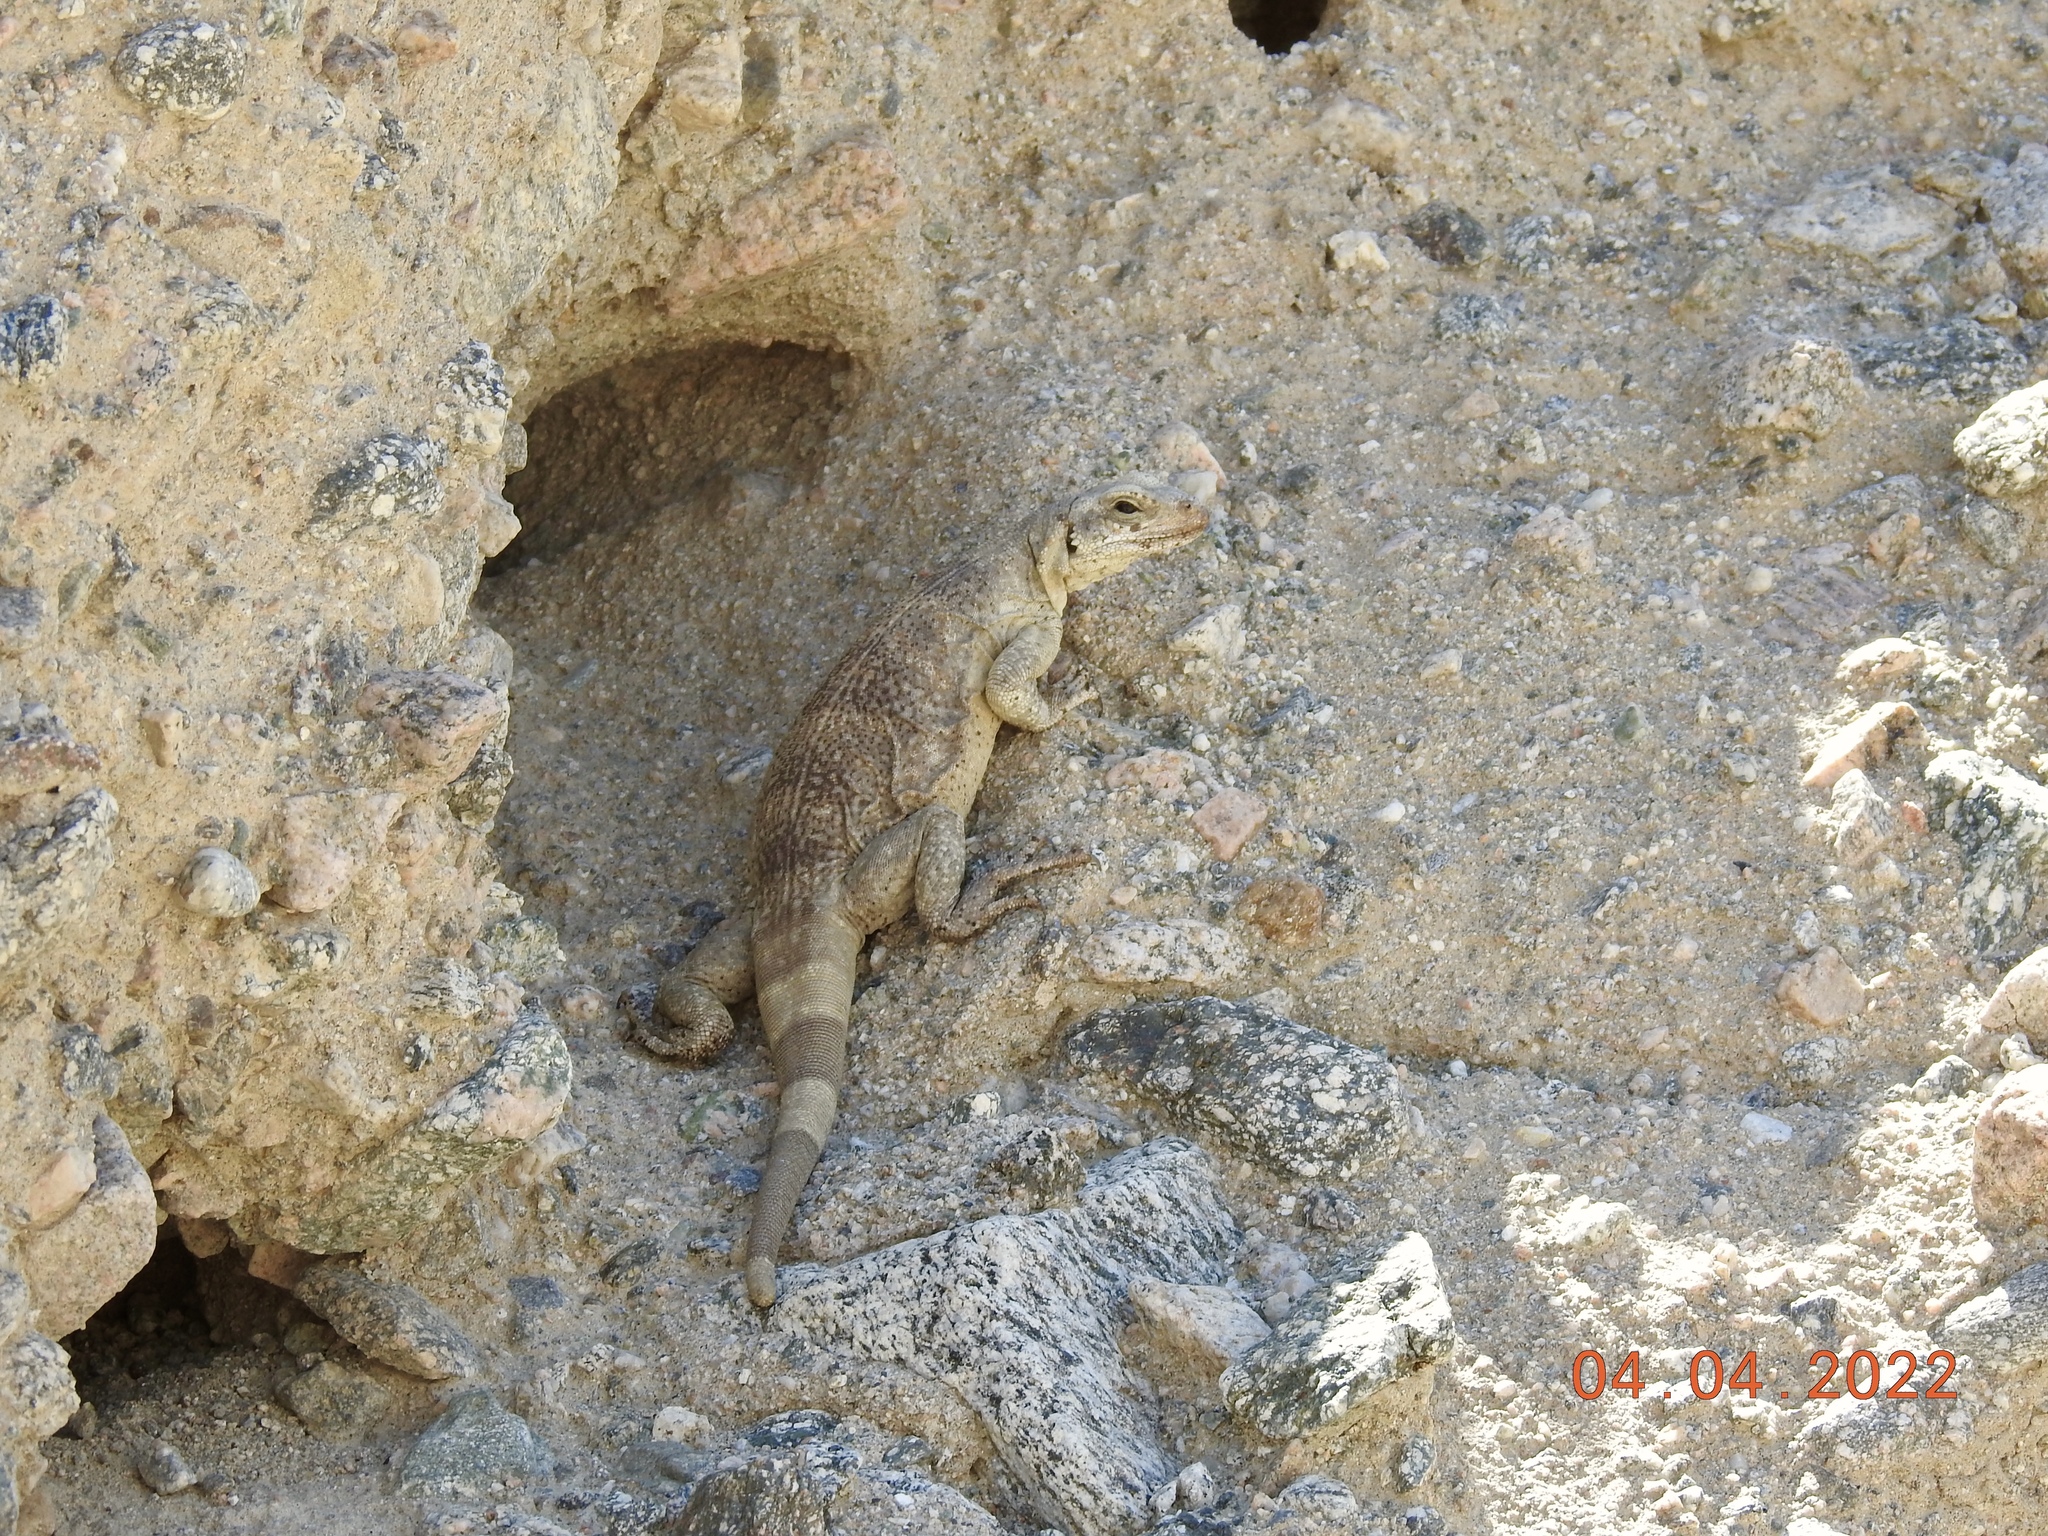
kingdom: Animalia
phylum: Chordata
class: Squamata
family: Iguanidae
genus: Sauromalus
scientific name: Sauromalus ater
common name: Northern chuckwalla
